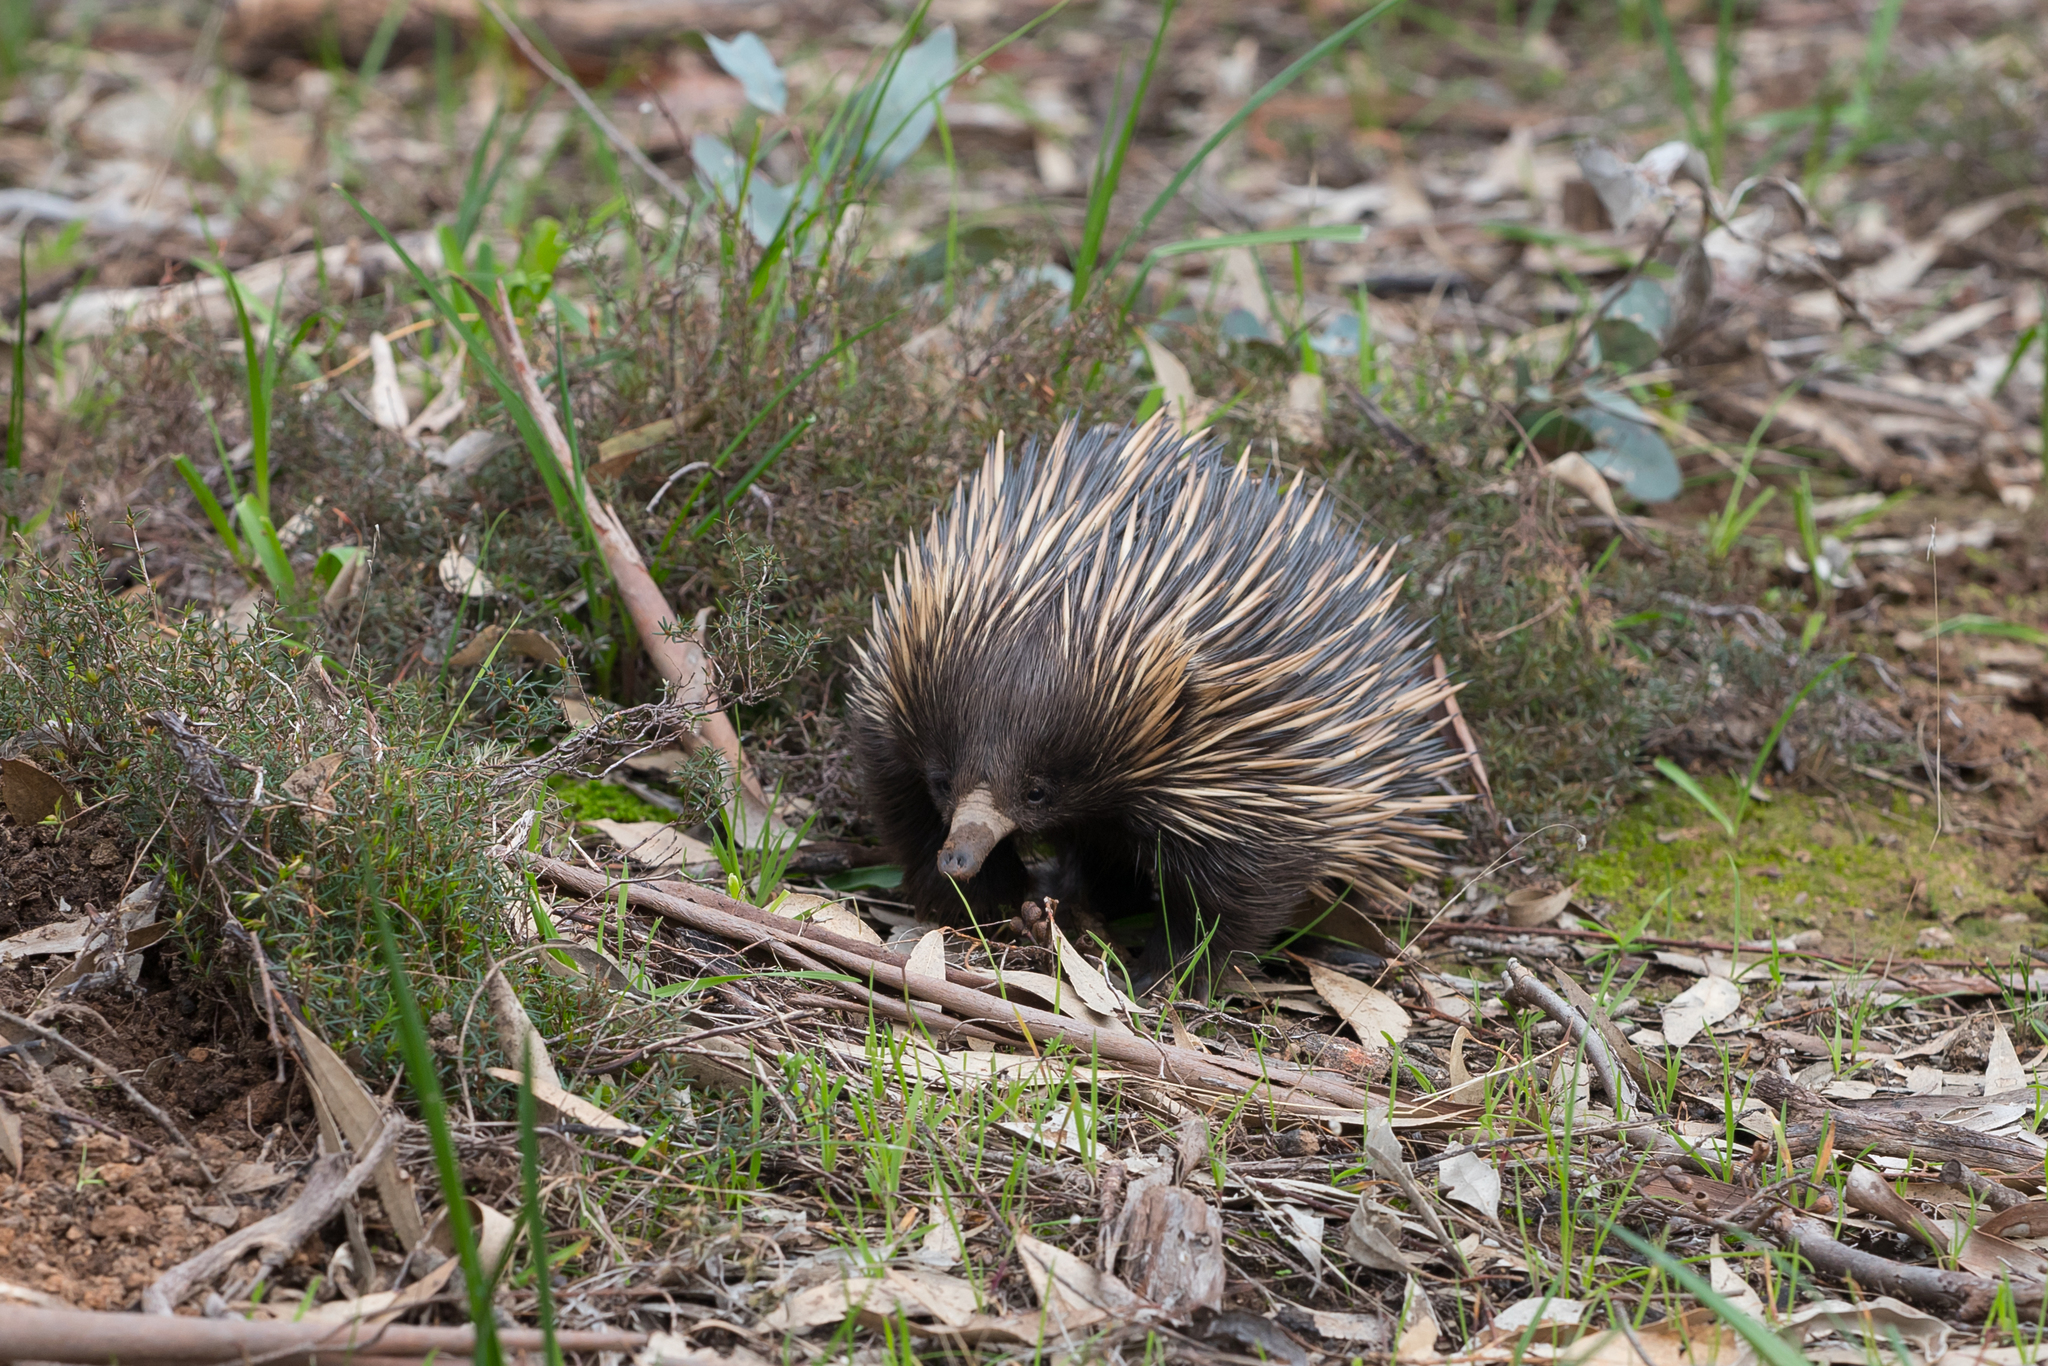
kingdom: Animalia
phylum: Chordata
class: Mammalia
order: Monotremata
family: Tachyglossidae
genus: Tachyglossus
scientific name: Tachyglossus aculeatus
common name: Short-beaked echidna
